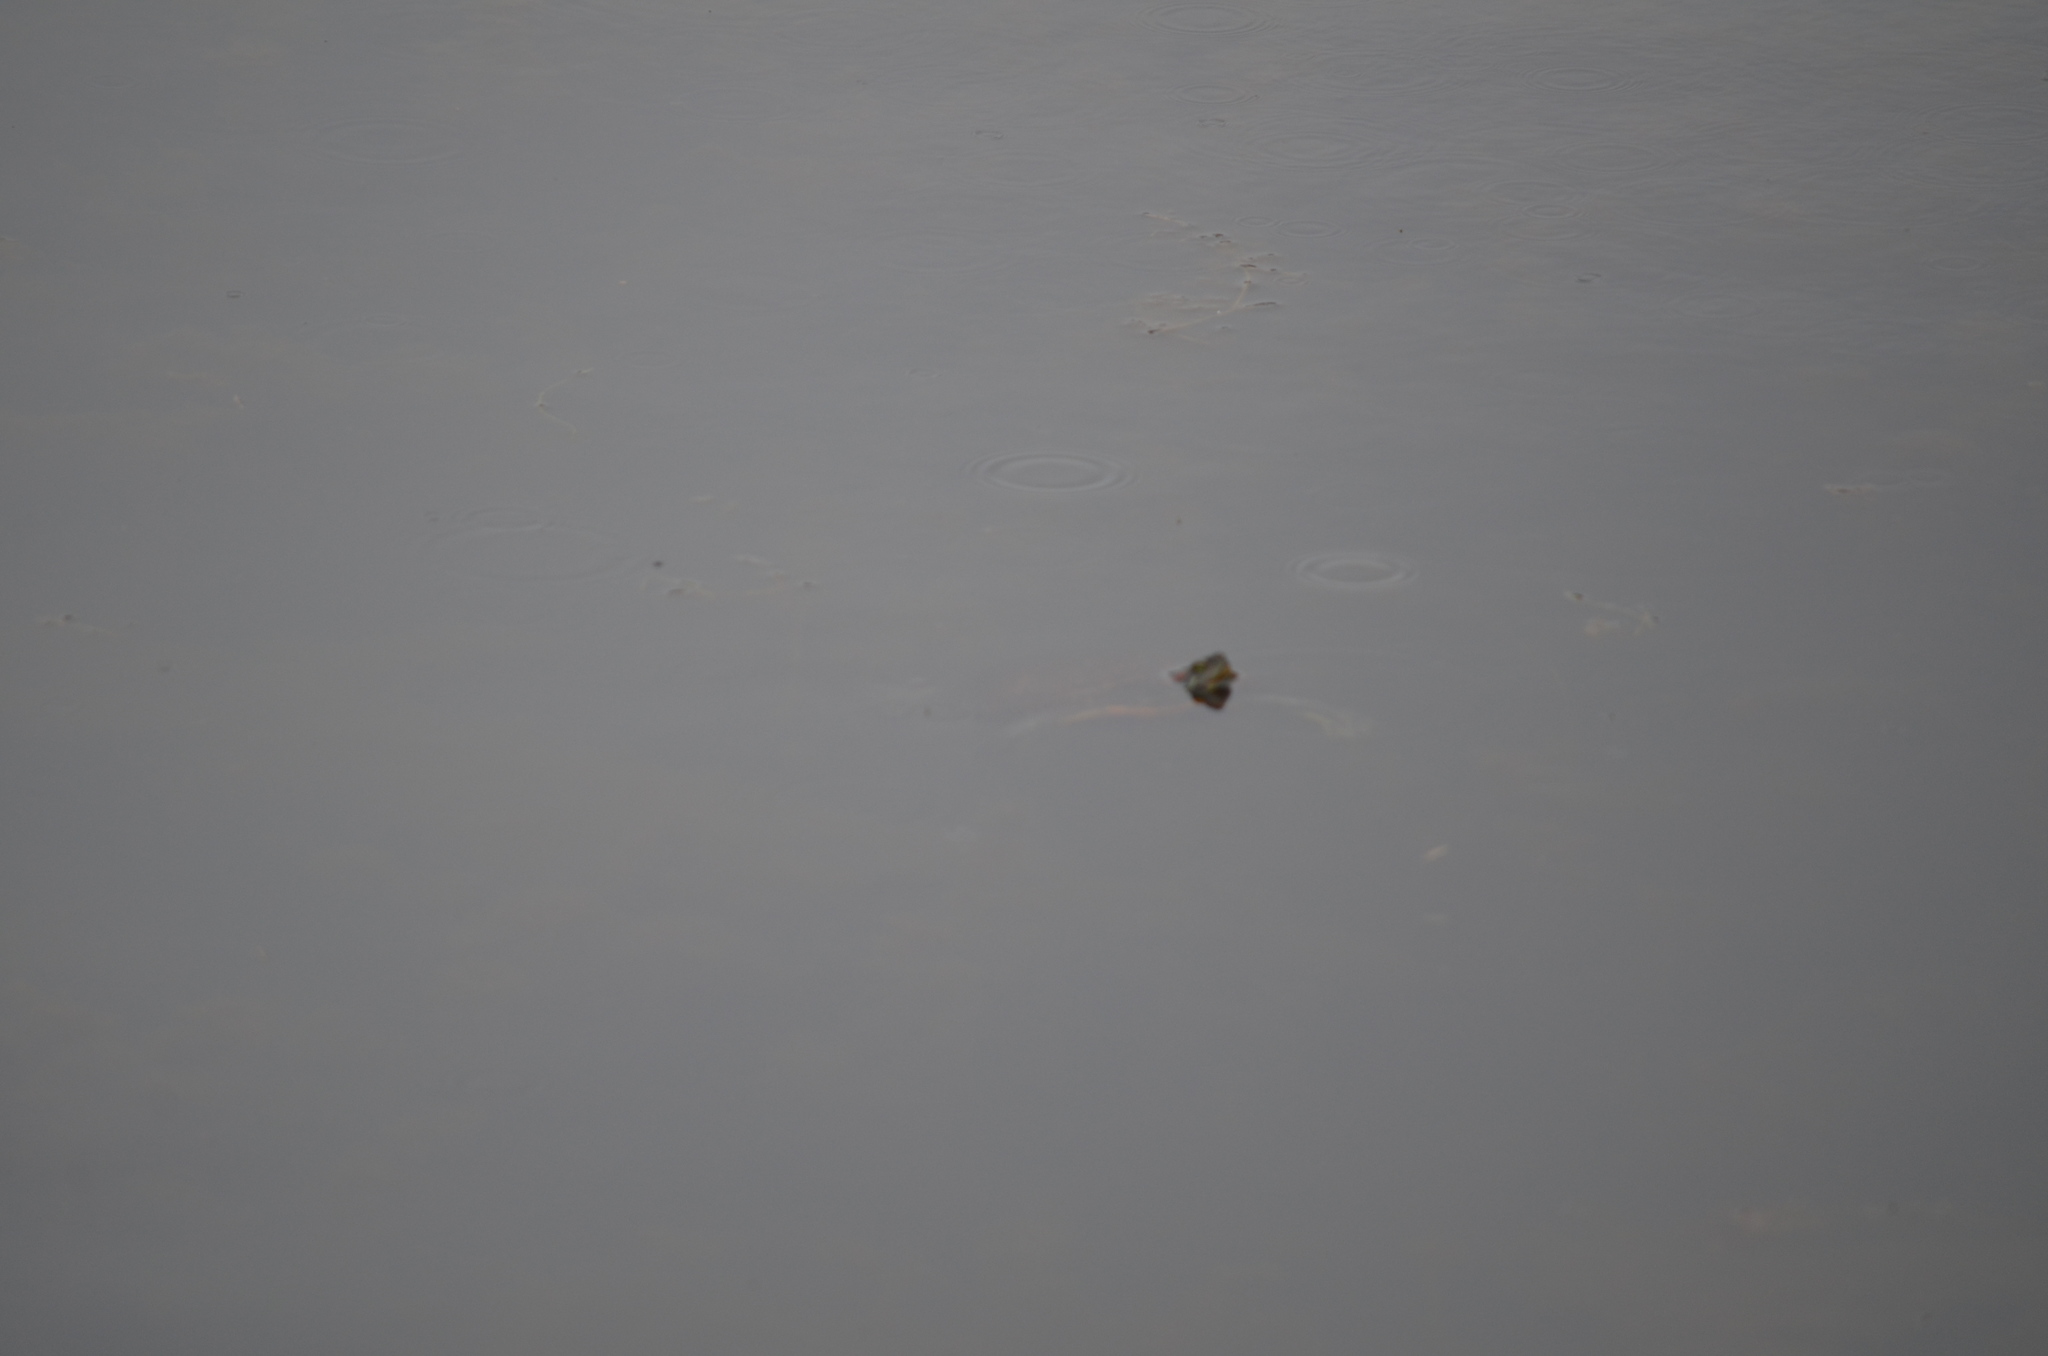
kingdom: Animalia
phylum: Chordata
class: Testudines
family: Emydidae
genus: Trachemys
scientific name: Trachemys scripta
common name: Slider
